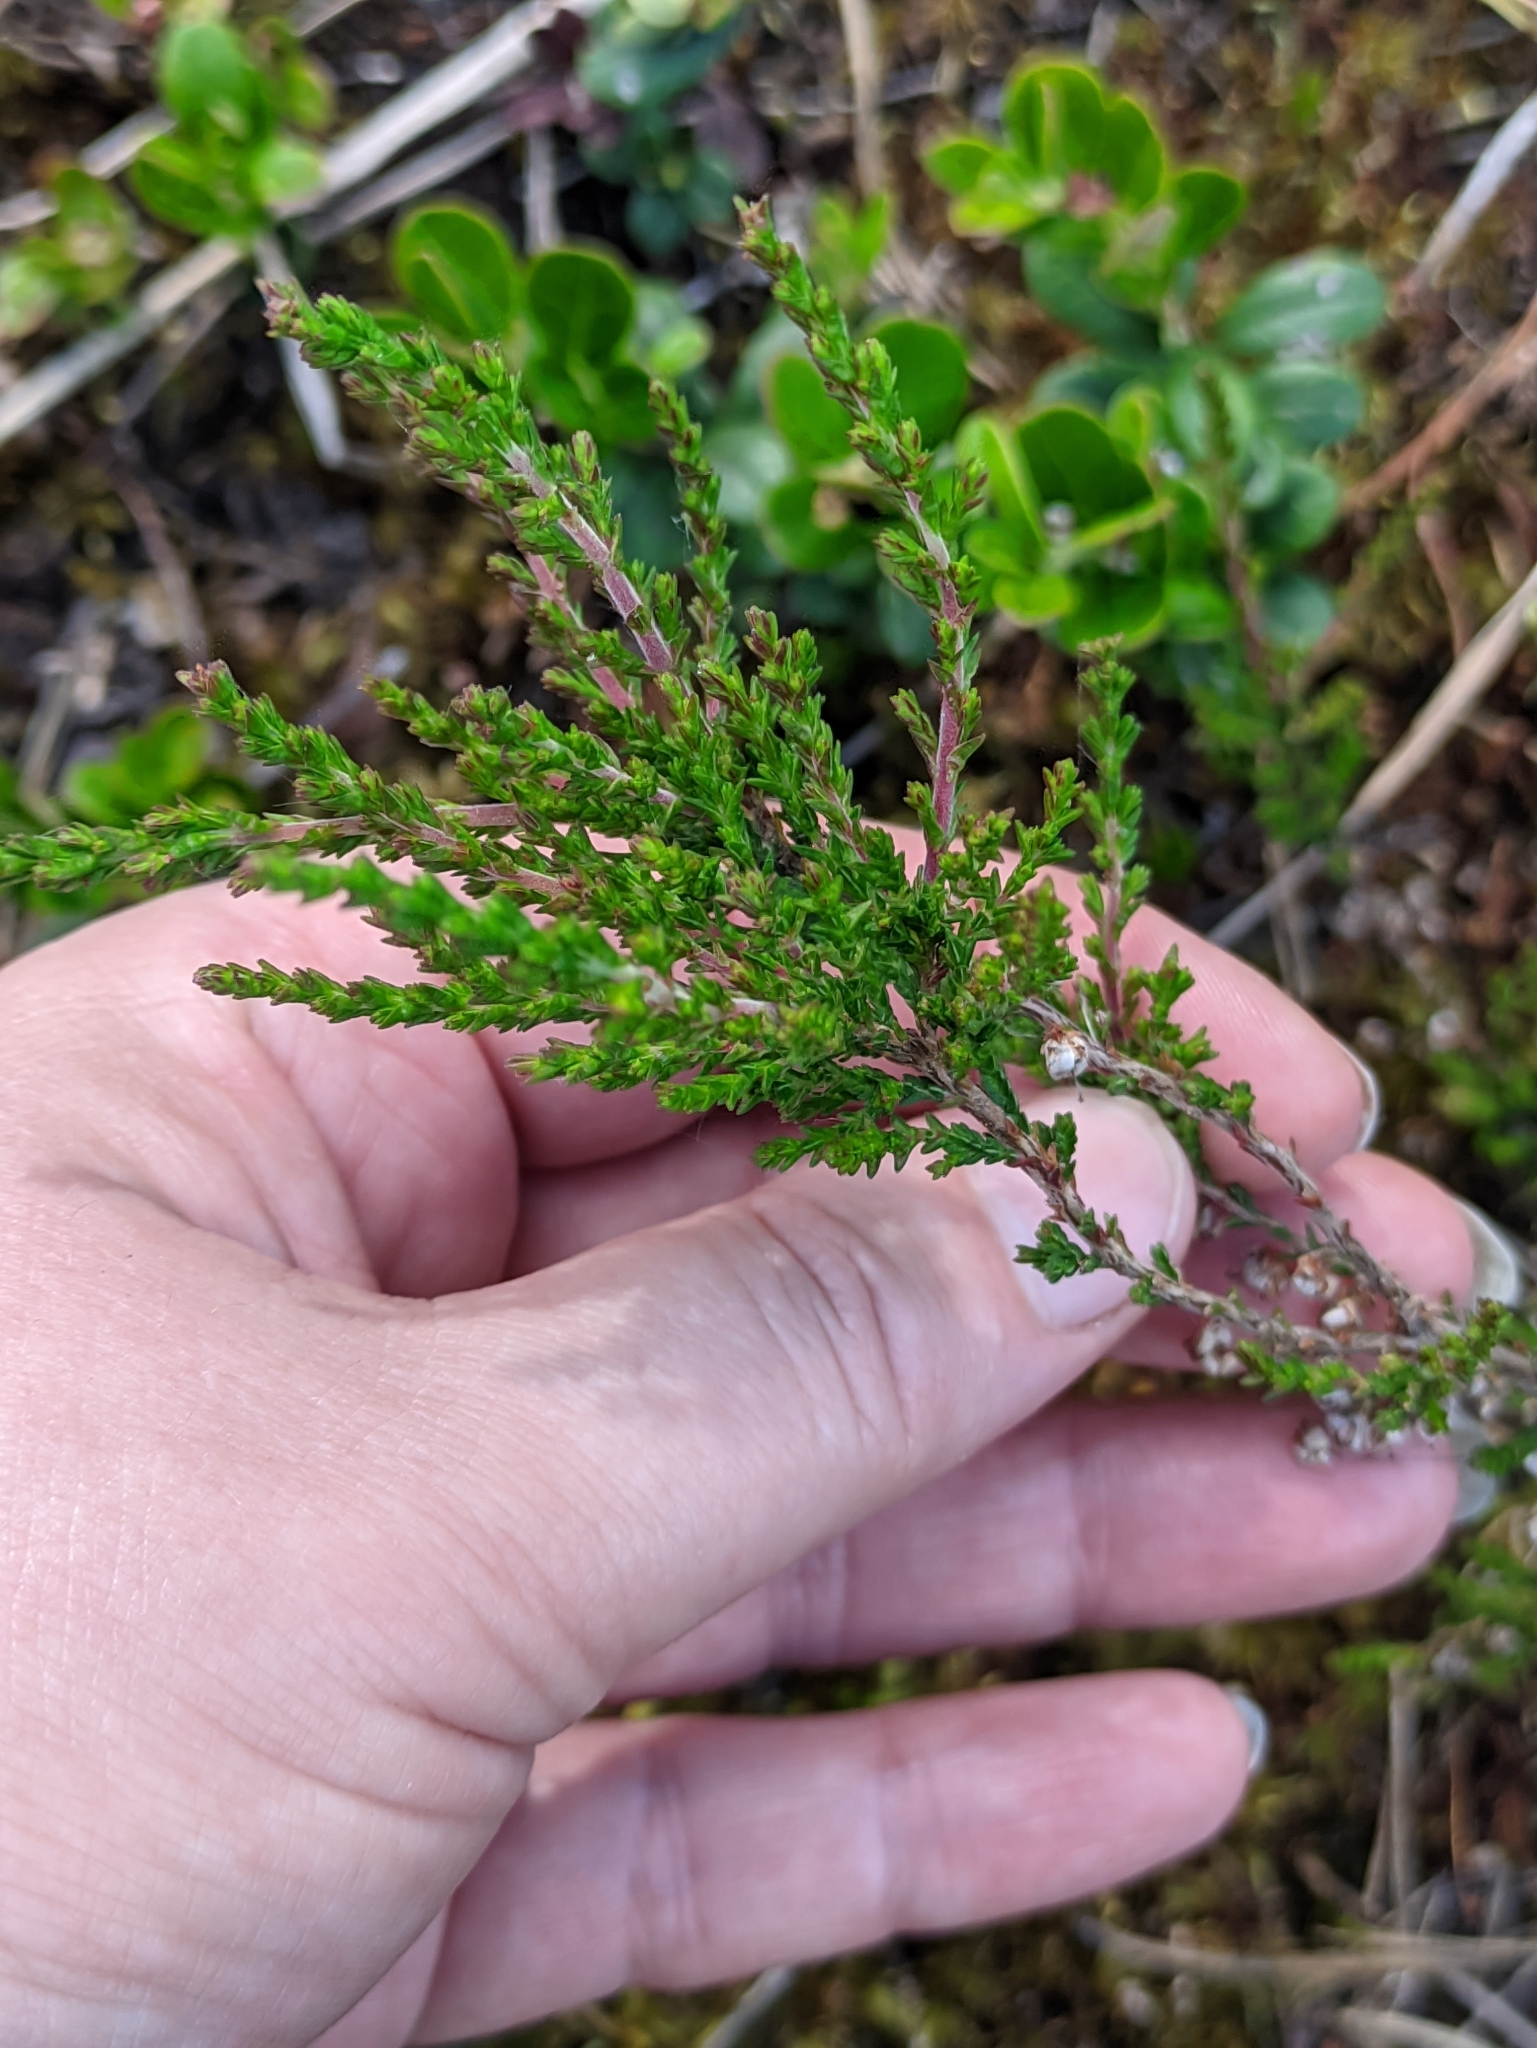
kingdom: Plantae
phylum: Tracheophyta
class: Magnoliopsida
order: Ericales
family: Ericaceae
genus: Calluna
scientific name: Calluna vulgaris
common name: Heather
